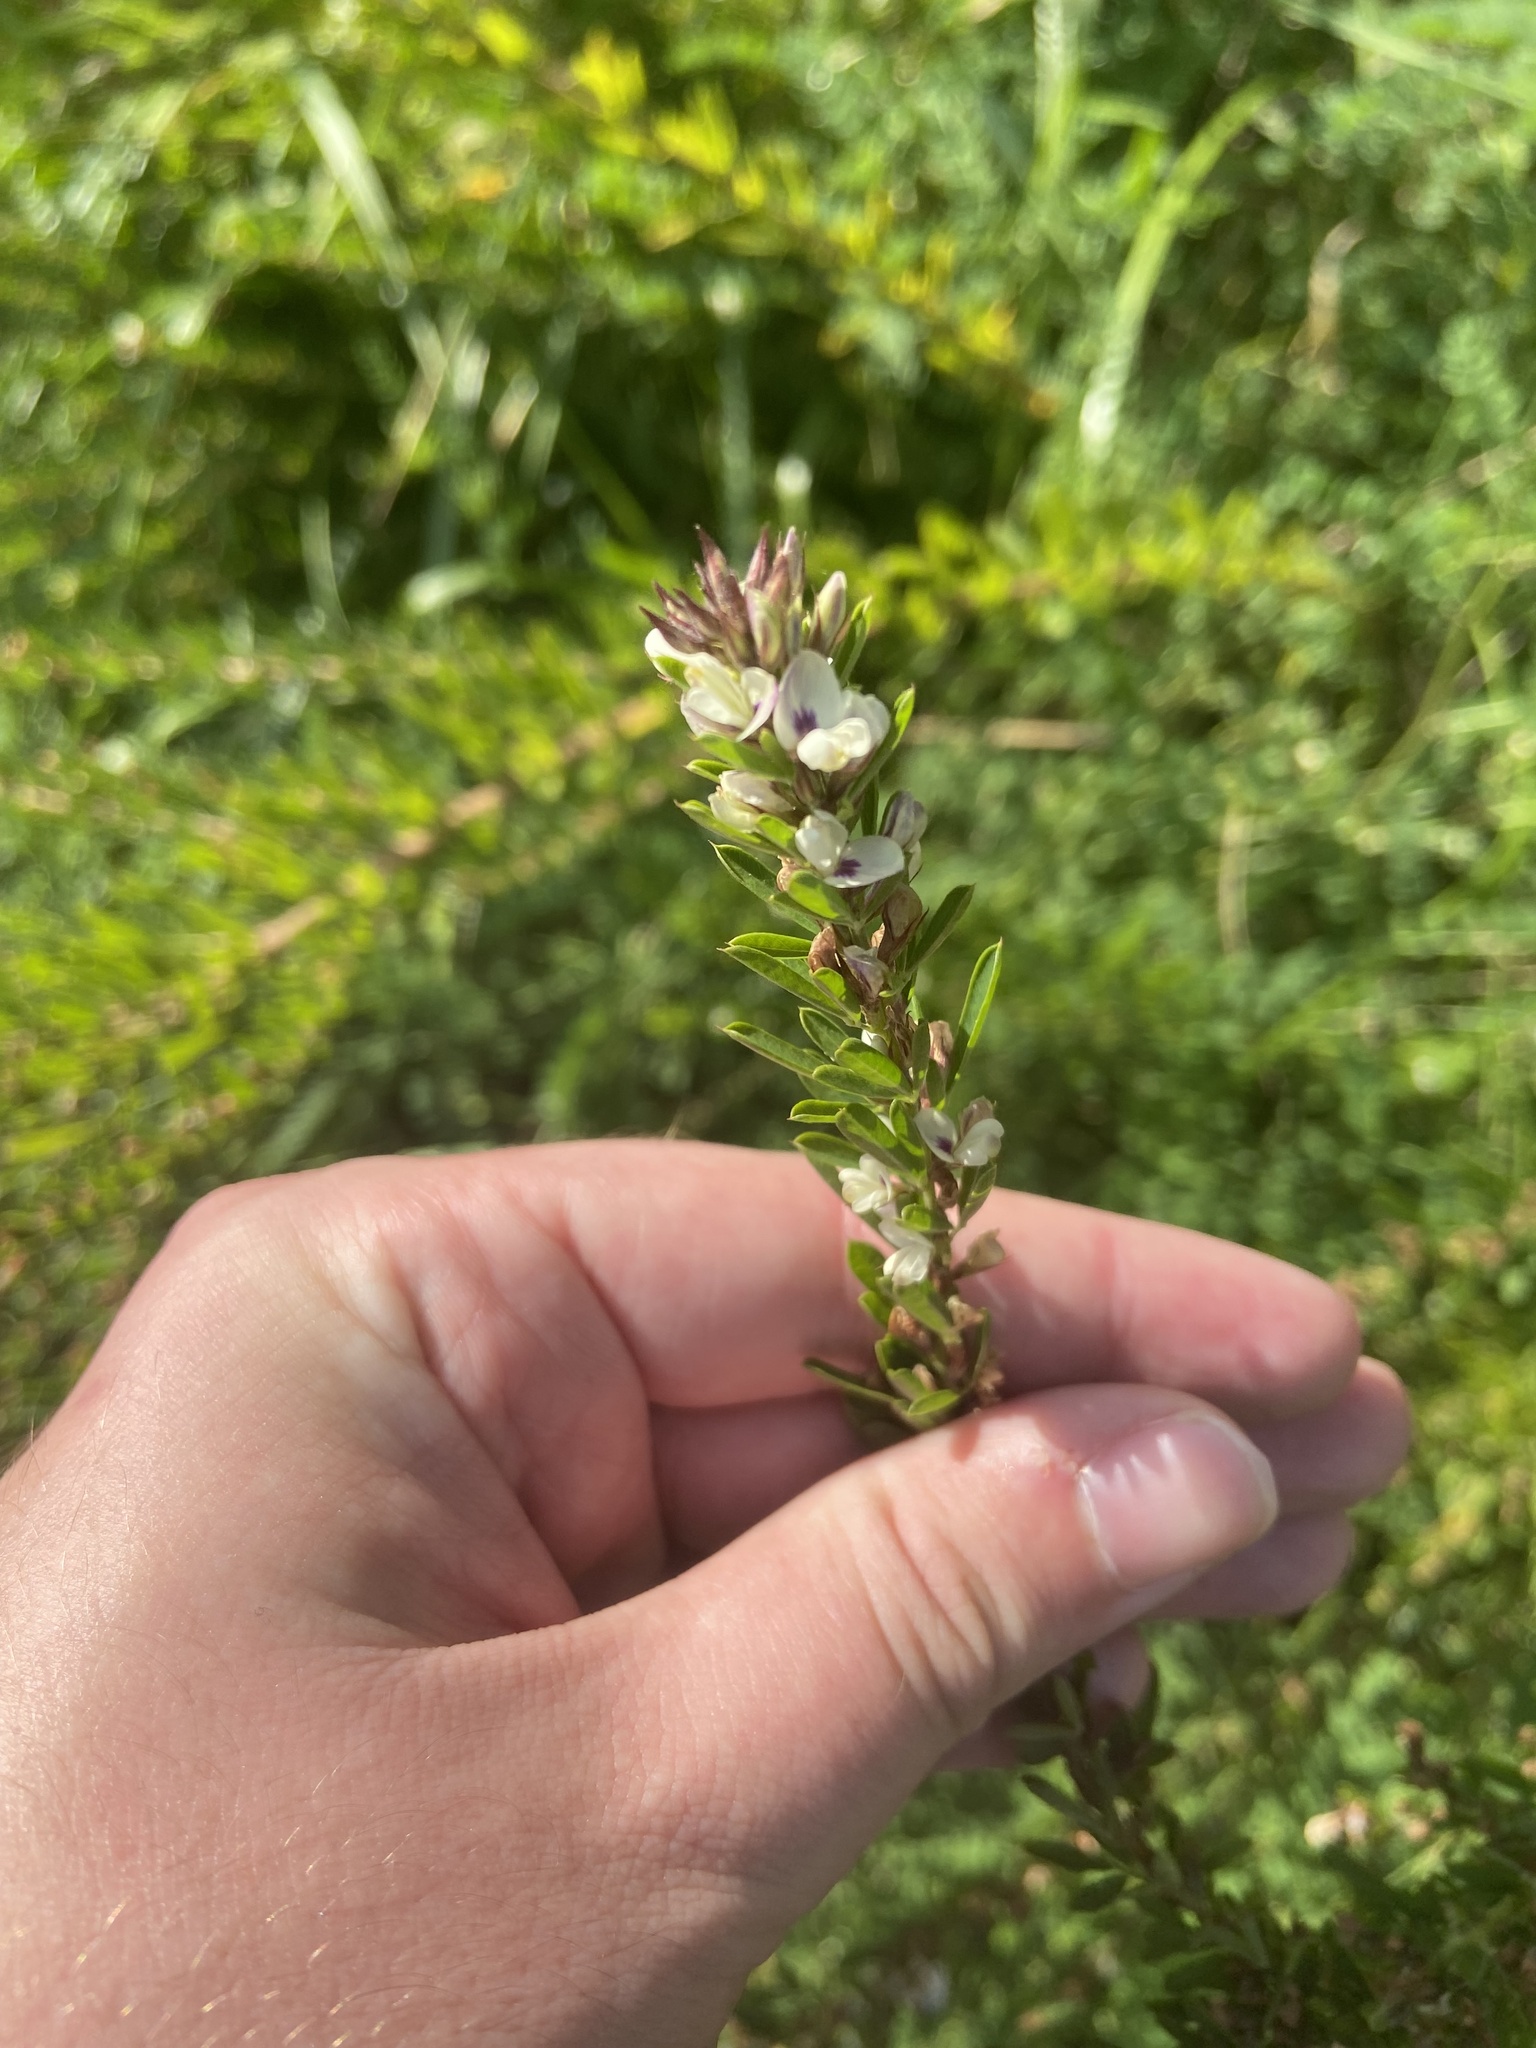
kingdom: Plantae
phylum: Tracheophyta
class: Magnoliopsida
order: Fabales
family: Fabaceae
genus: Lespedeza
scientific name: Lespedeza cuneata
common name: Chinese bush-clover
